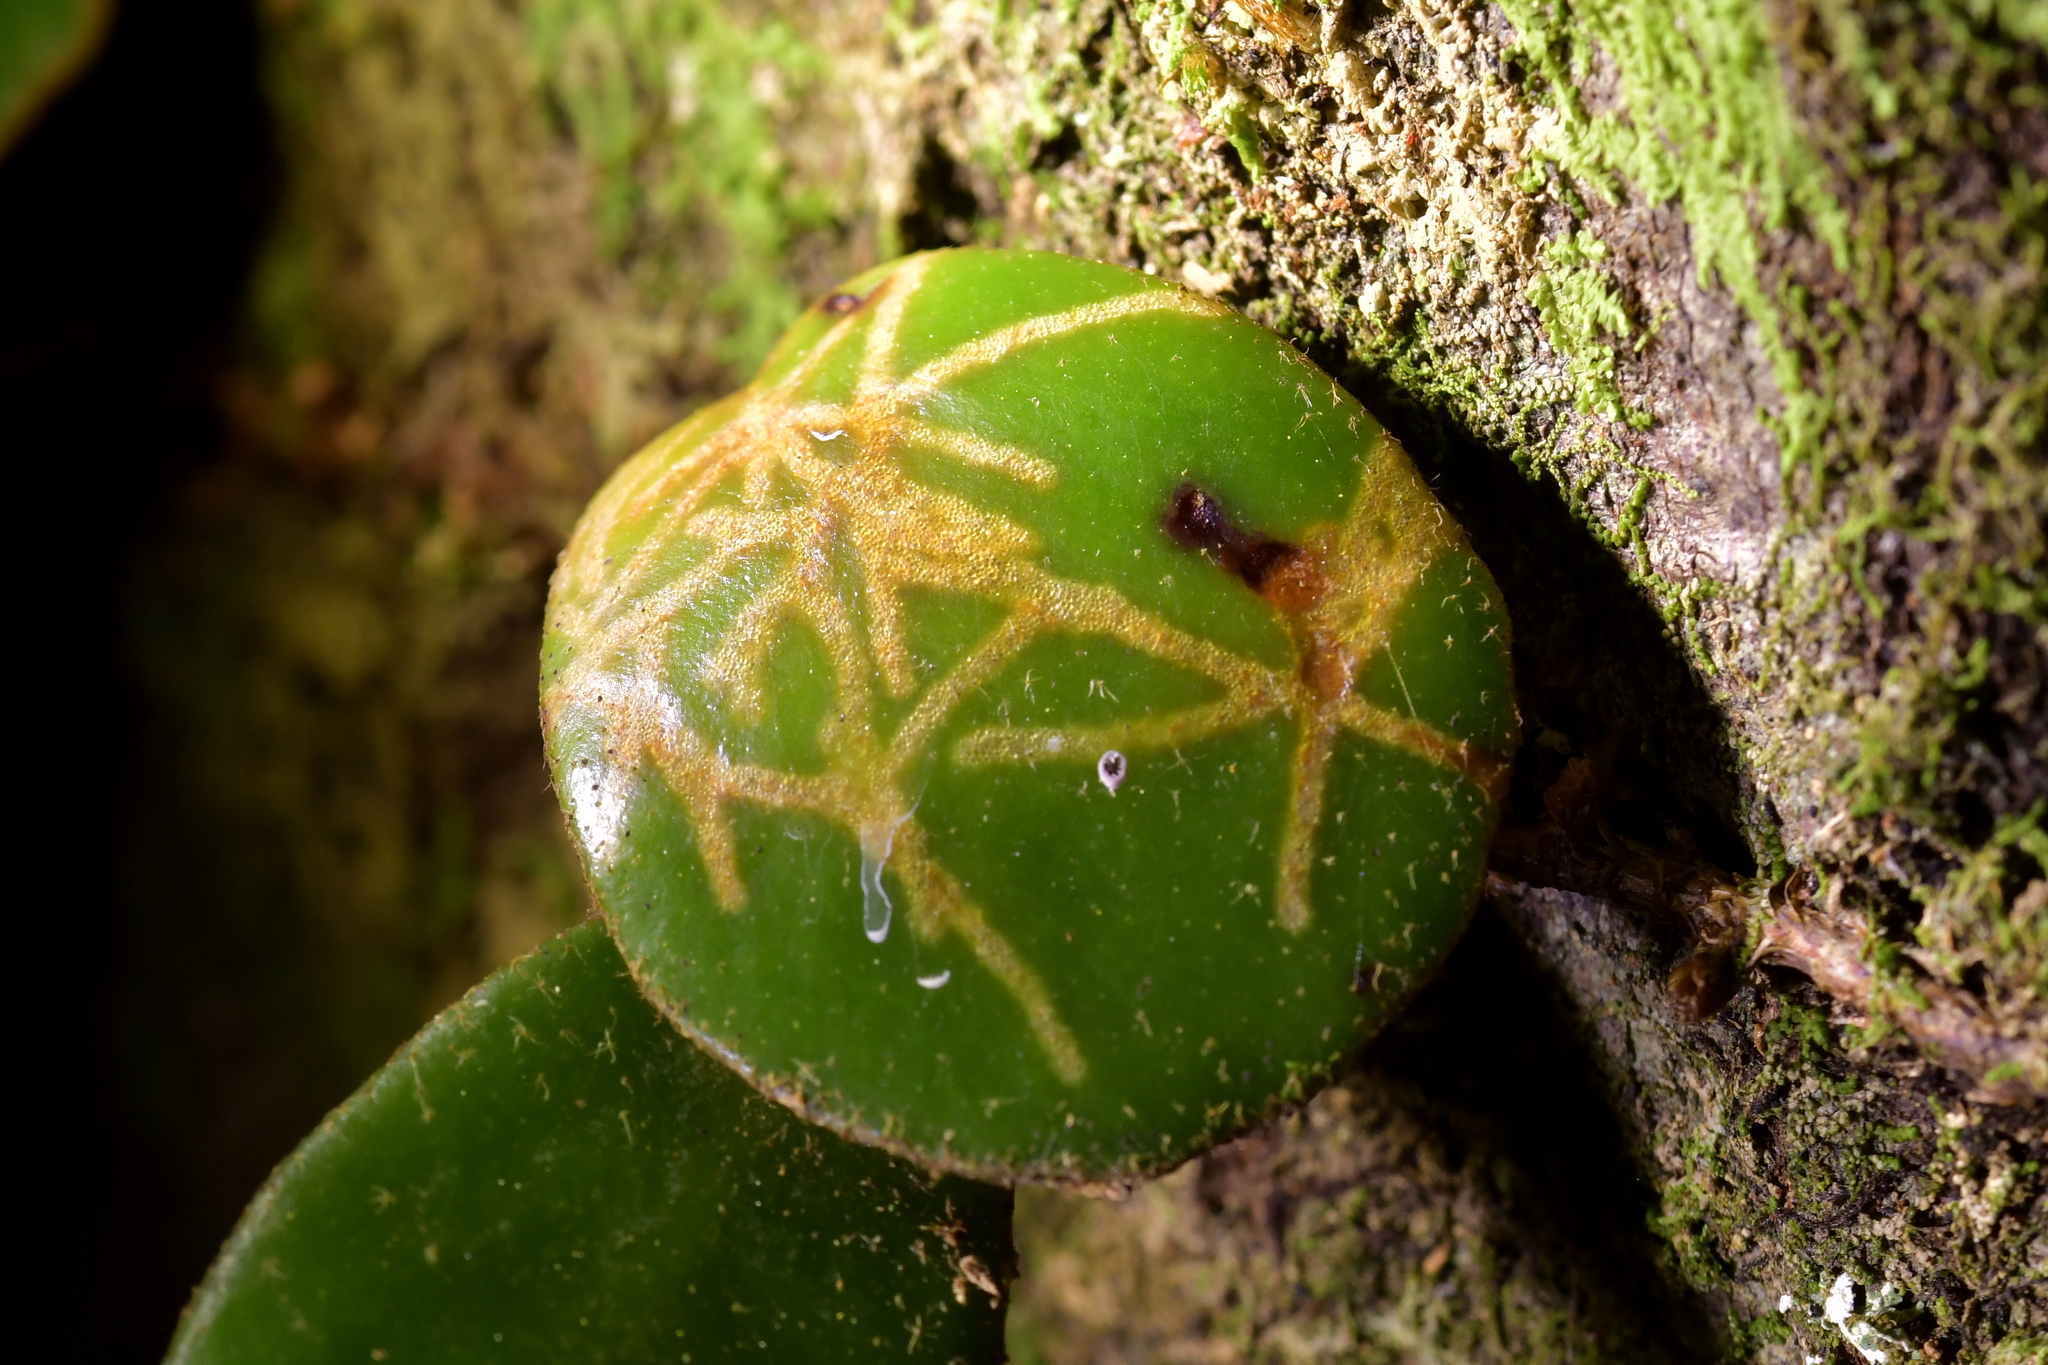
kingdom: Animalia
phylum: Arthropoda
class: Insecta
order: Lepidoptera
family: Tortricidae
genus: Philocryptica
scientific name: Philocryptica polypodii
